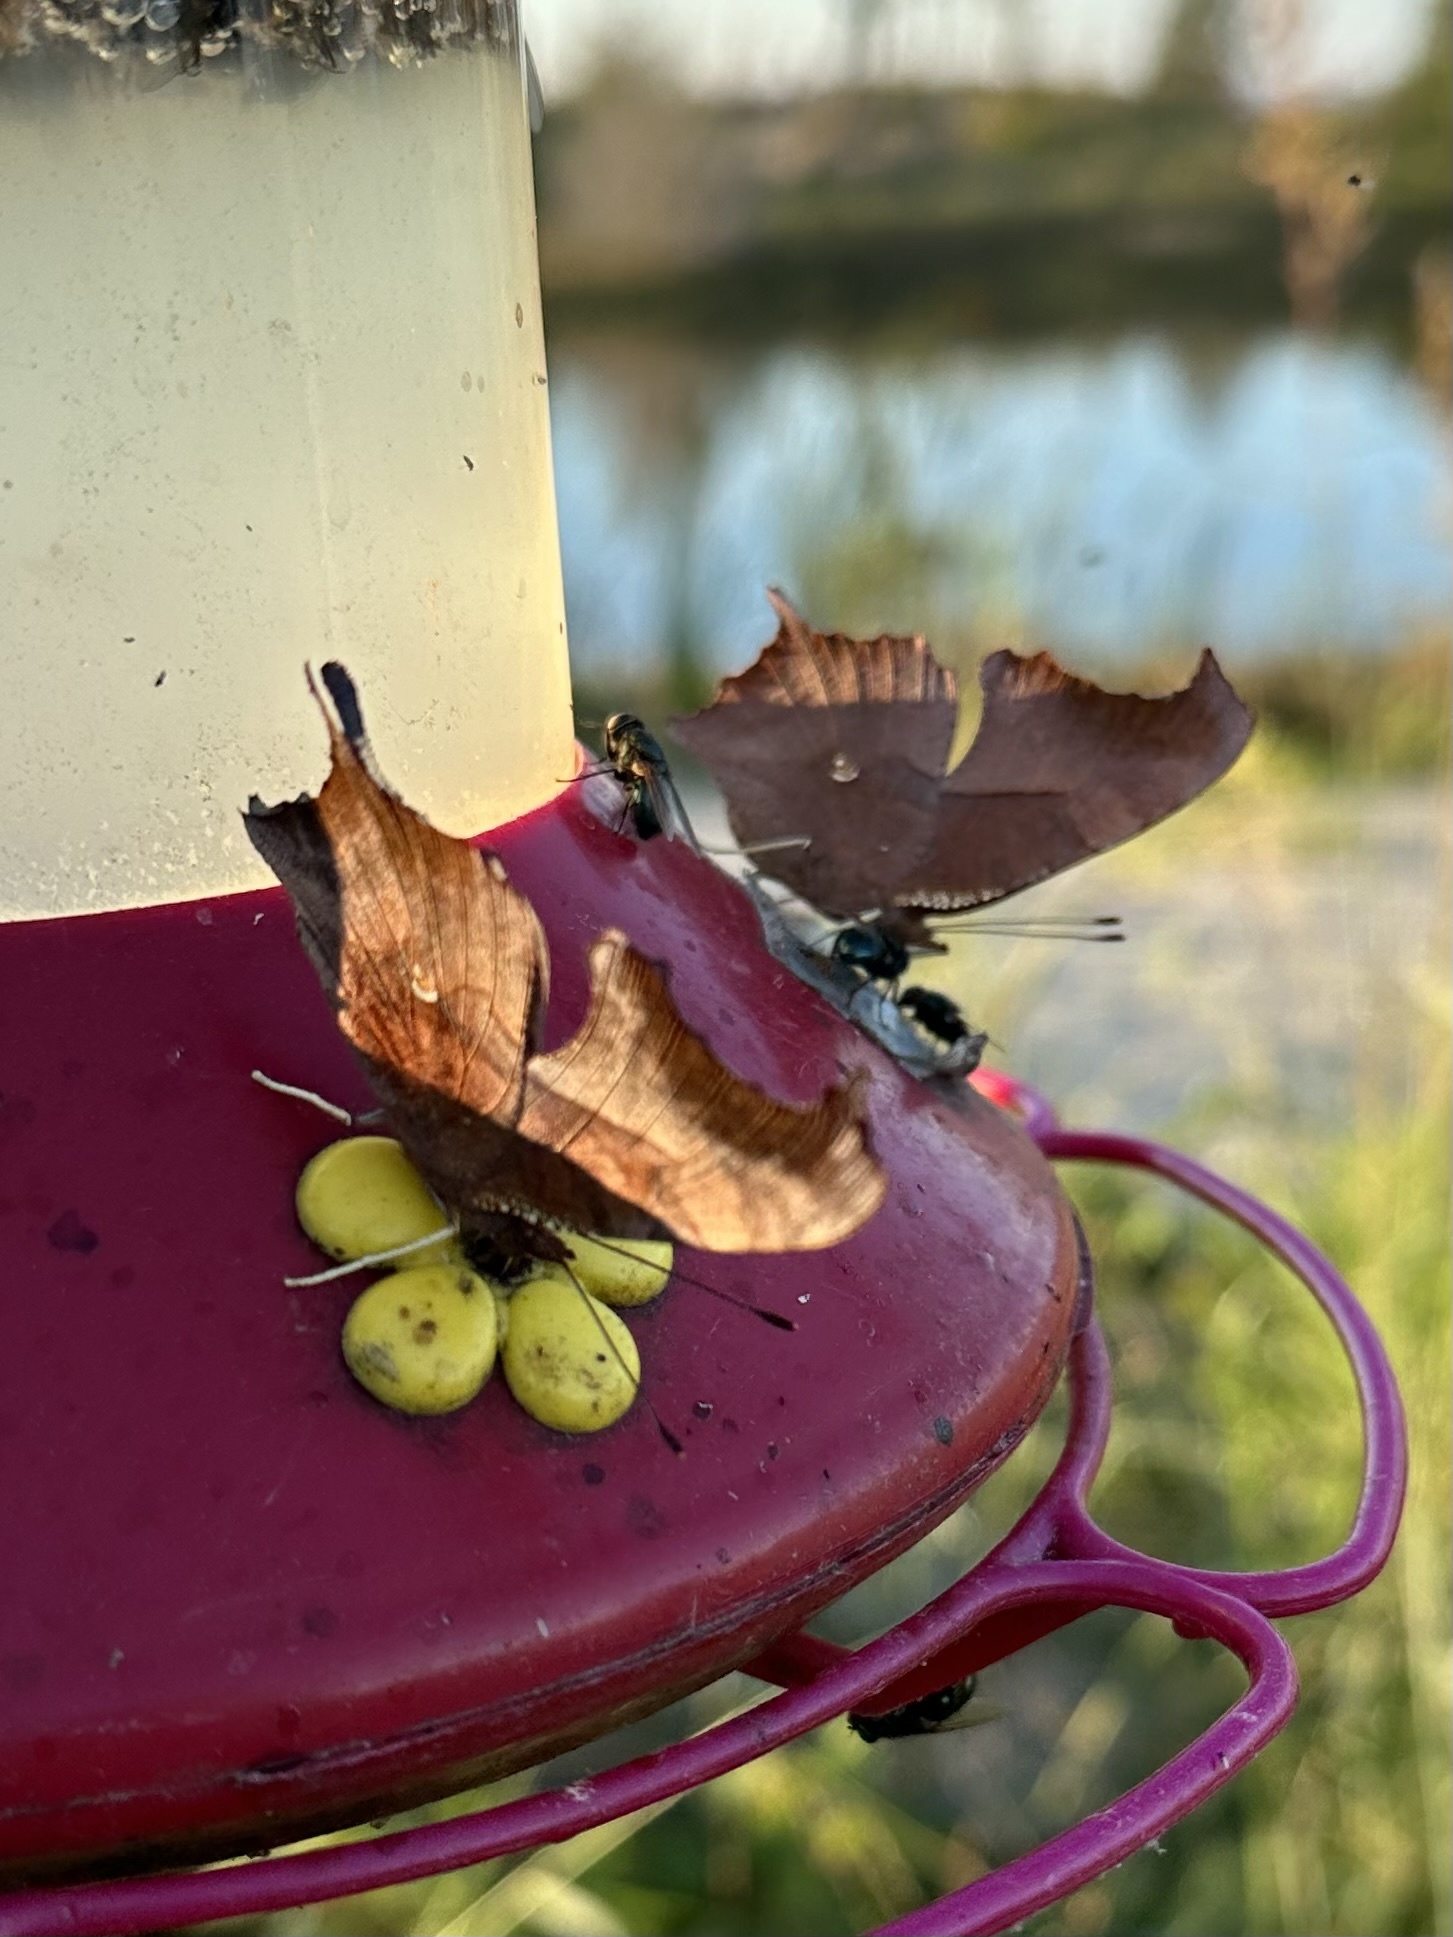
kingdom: Animalia
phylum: Arthropoda
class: Insecta
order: Lepidoptera
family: Nymphalidae
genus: Polygonia
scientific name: Polygonia interrogationis
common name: Question mark
